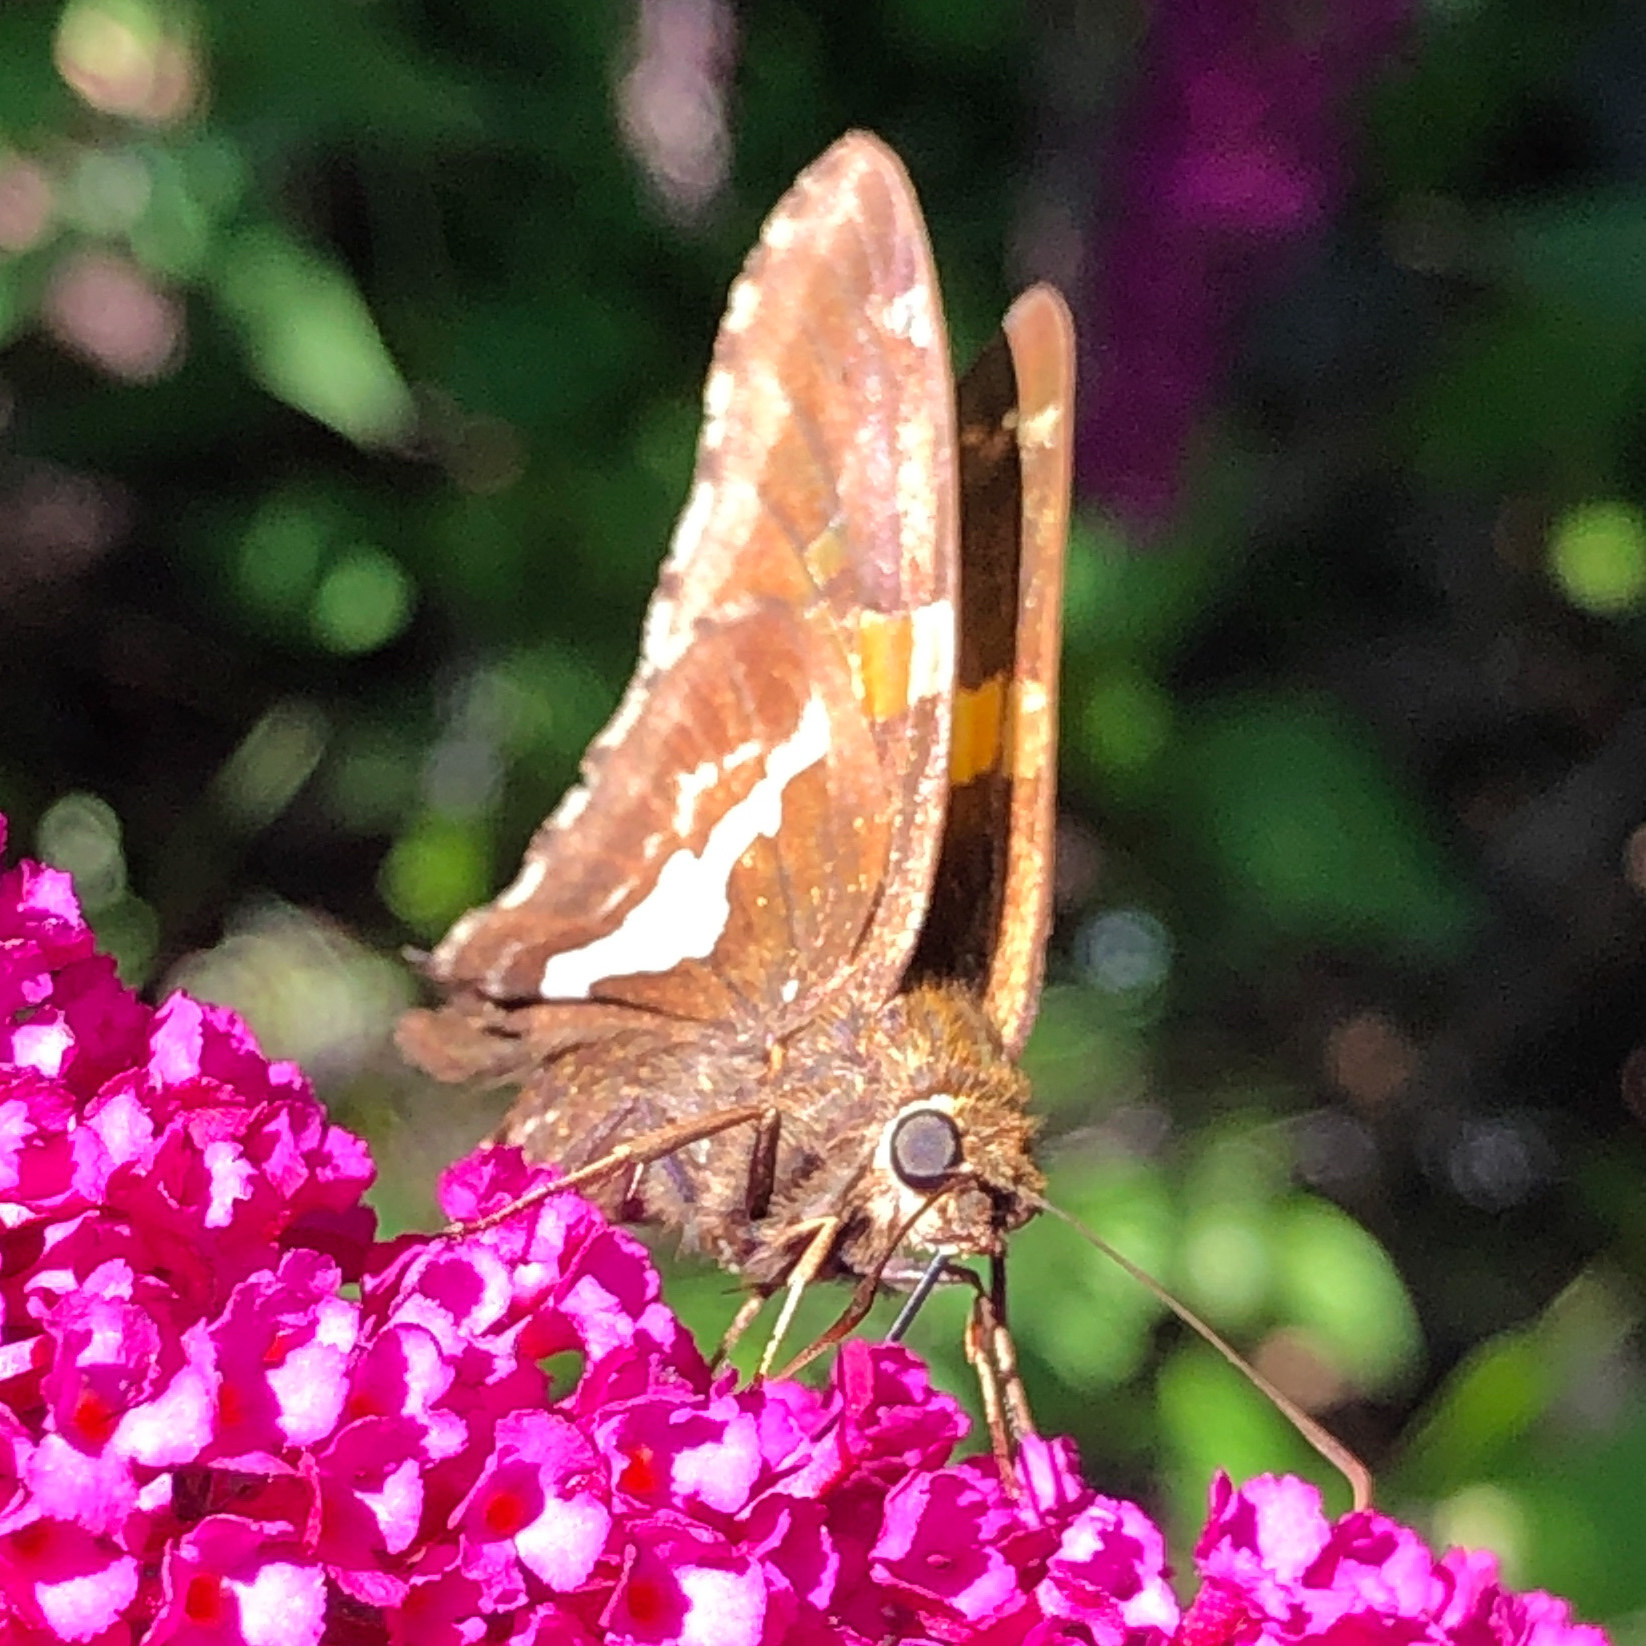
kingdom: Animalia
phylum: Arthropoda
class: Insecta
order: Lepidoptera
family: Hesperiidae
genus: Epargyreus
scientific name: Epargyreus clarus
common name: Silver-spotted skipper
